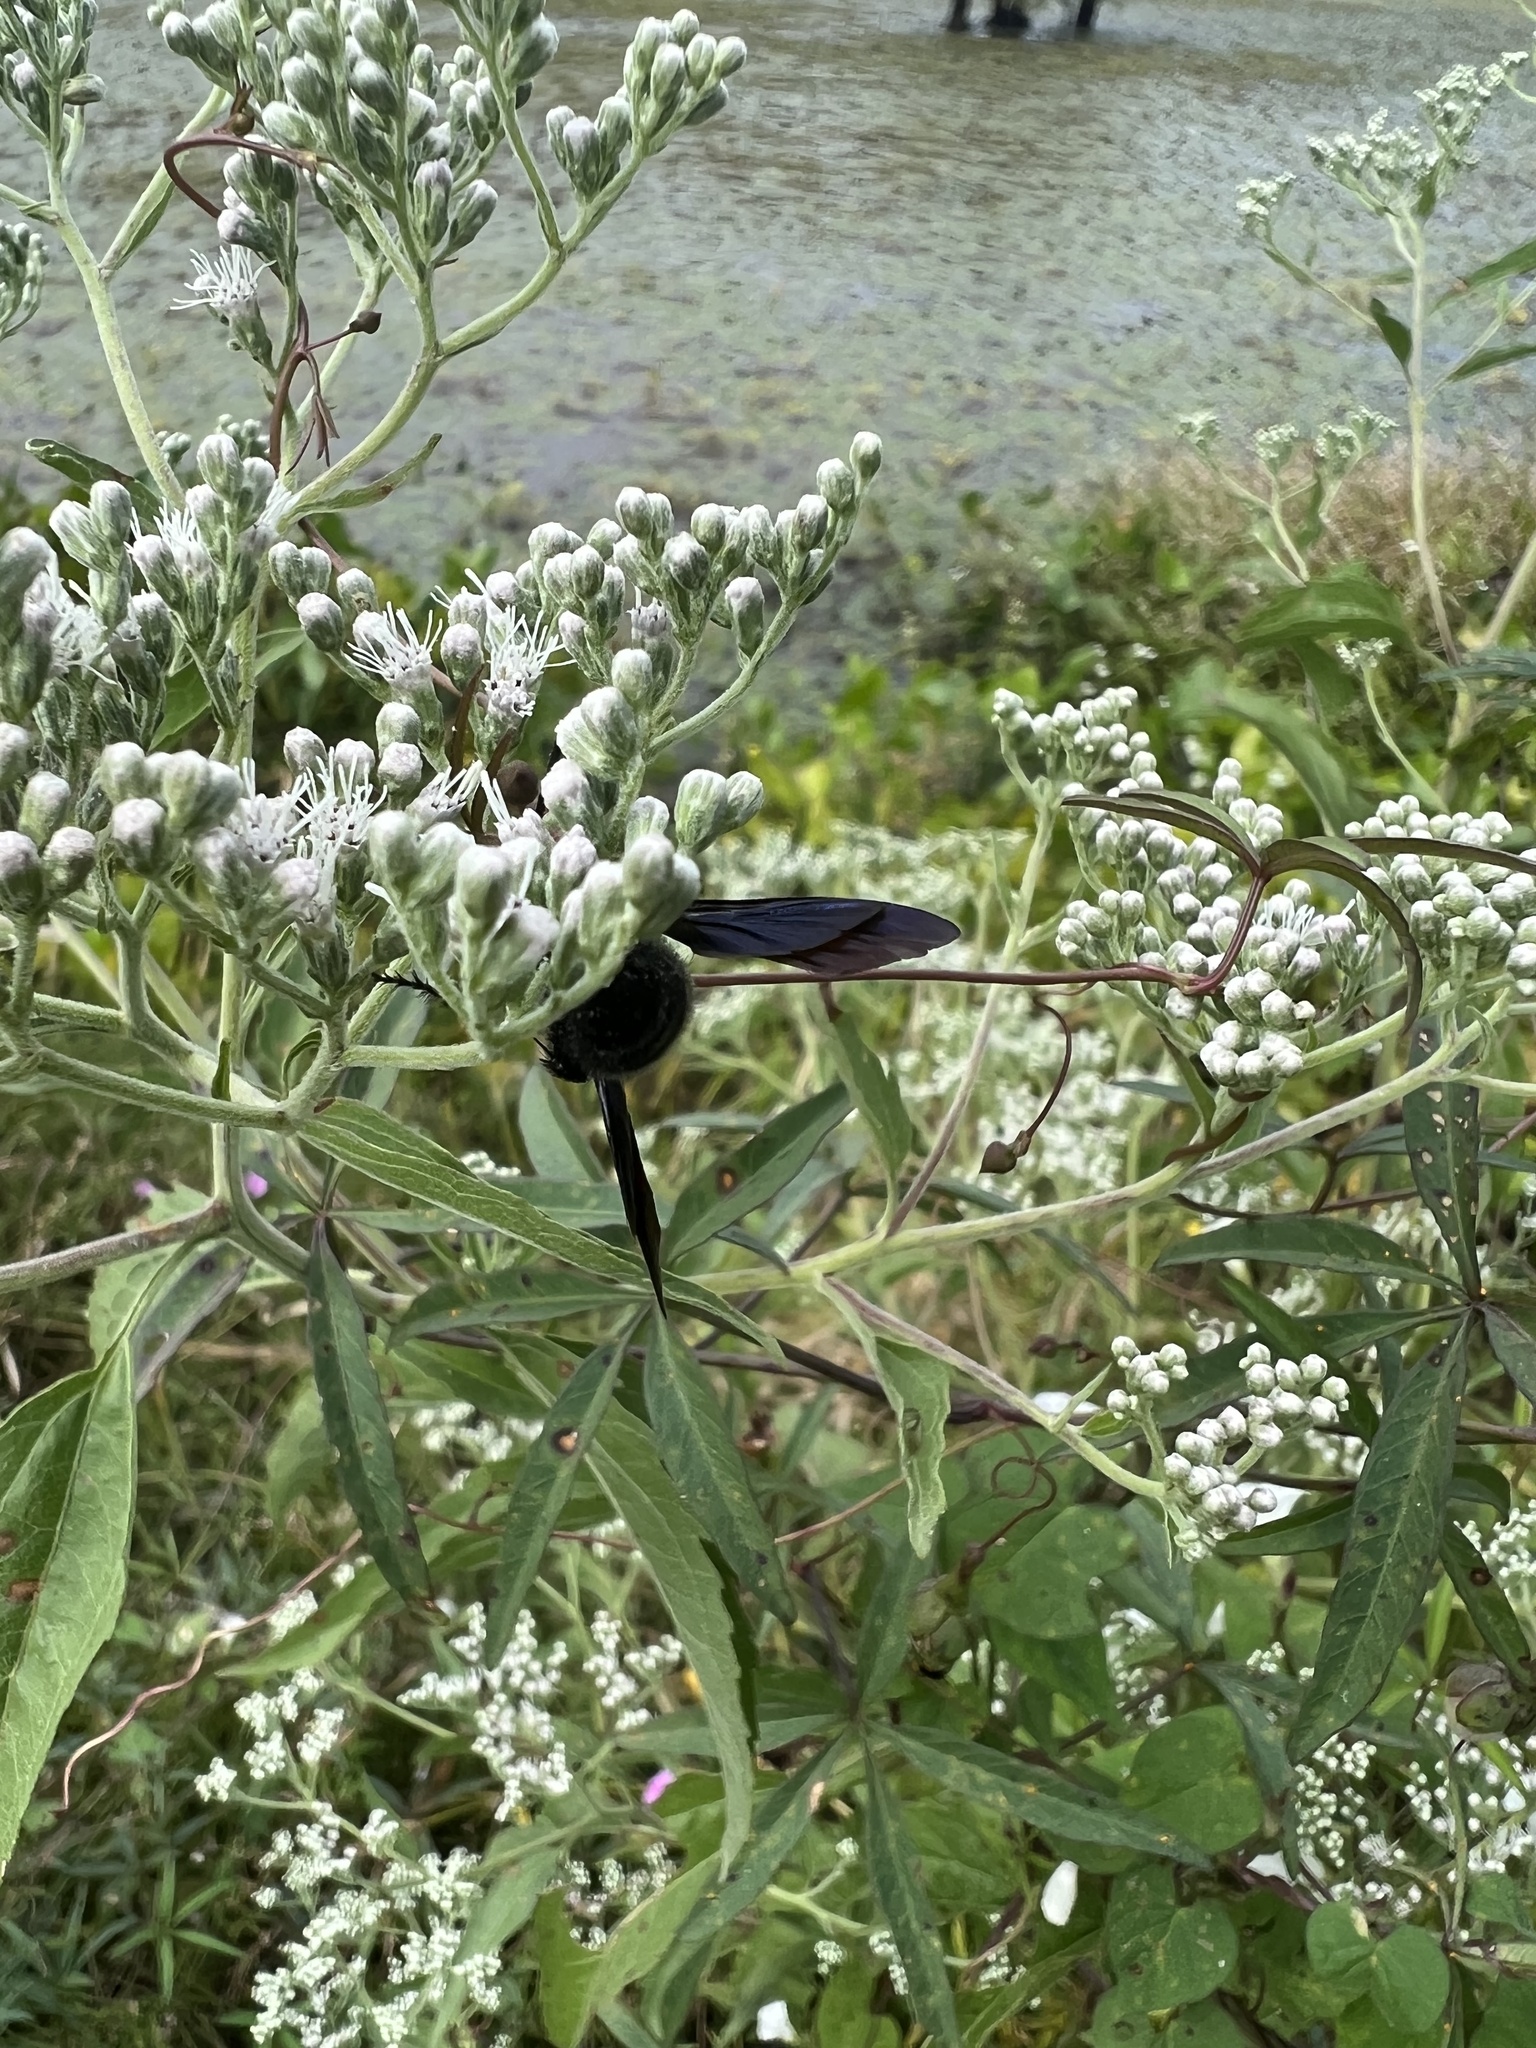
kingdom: Animalia
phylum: Arthropoda
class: Insecta
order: Hymenoptera
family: Scoliidae
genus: Scolia
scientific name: Scolia bicincta
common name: Double-banded scoliid wasp
